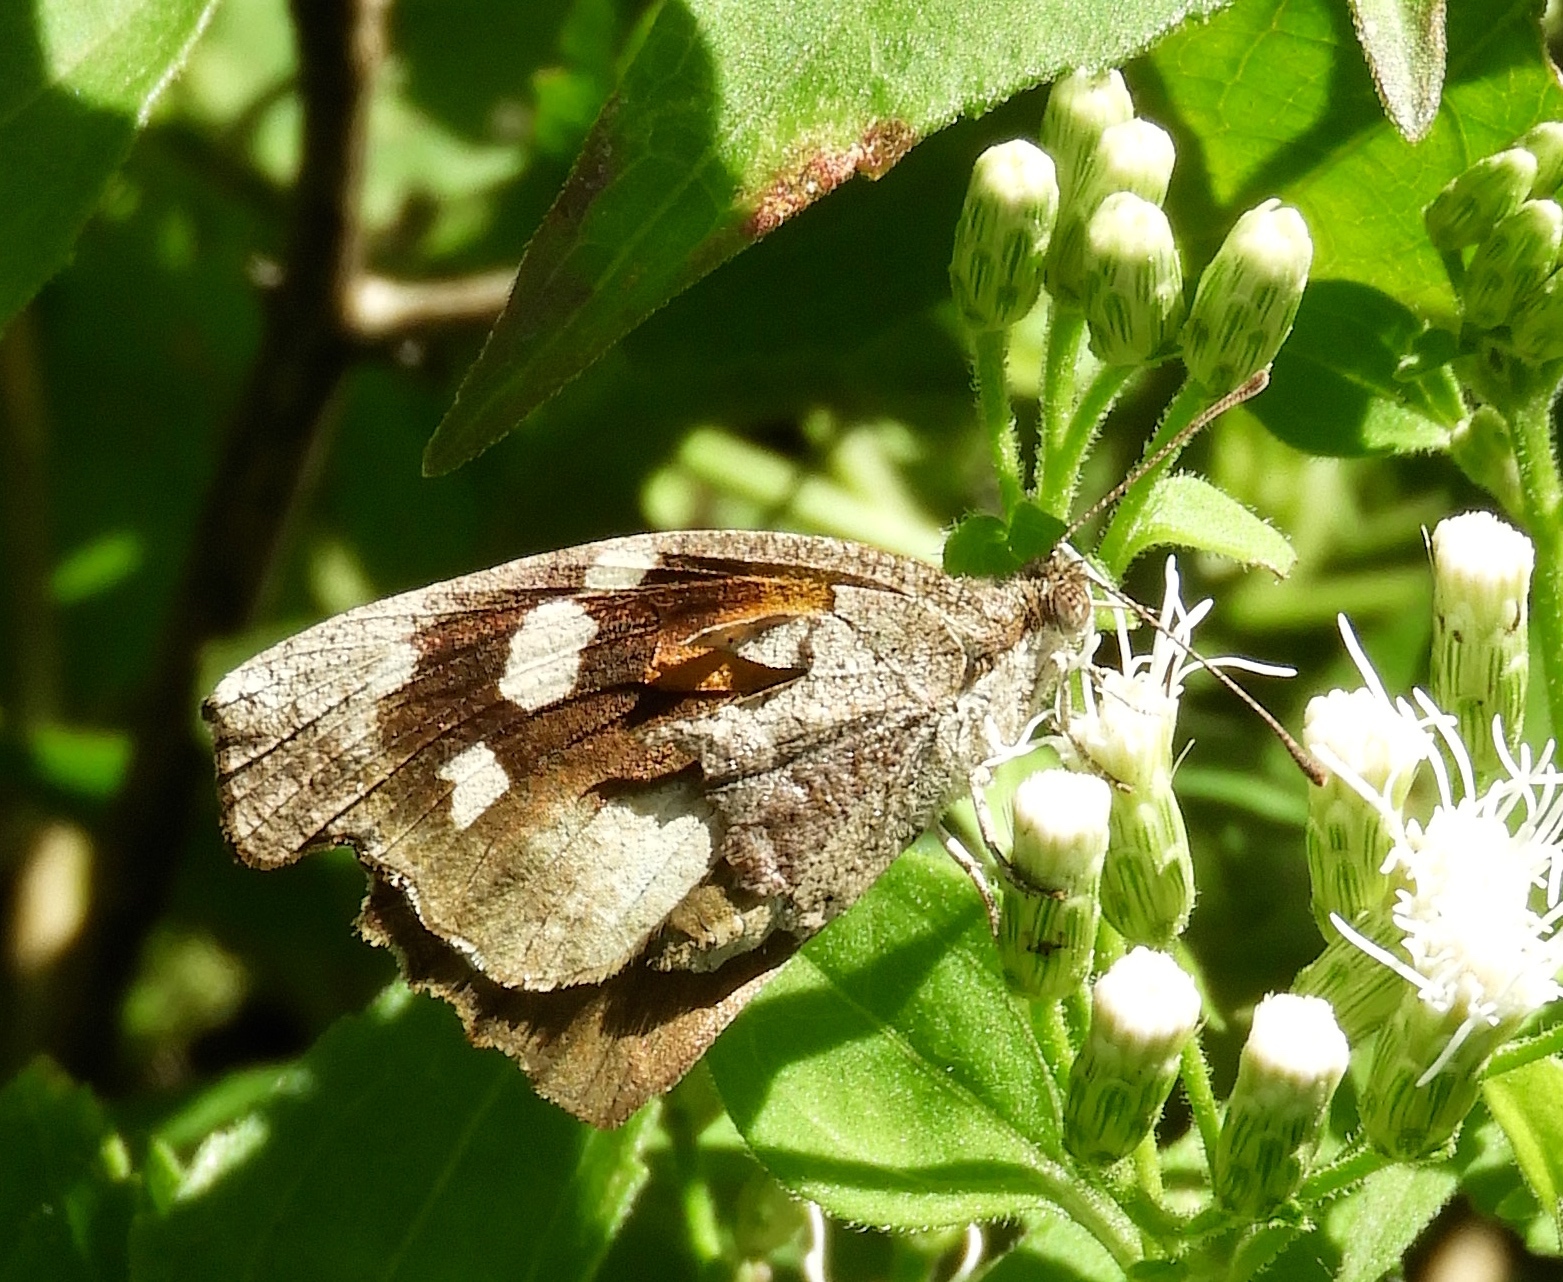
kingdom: Animalia
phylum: Arthropoda
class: Insecta
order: Lepidoptera
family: Nymphalidae
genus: Libytheana
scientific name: Libytheana carinenta
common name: American snout
